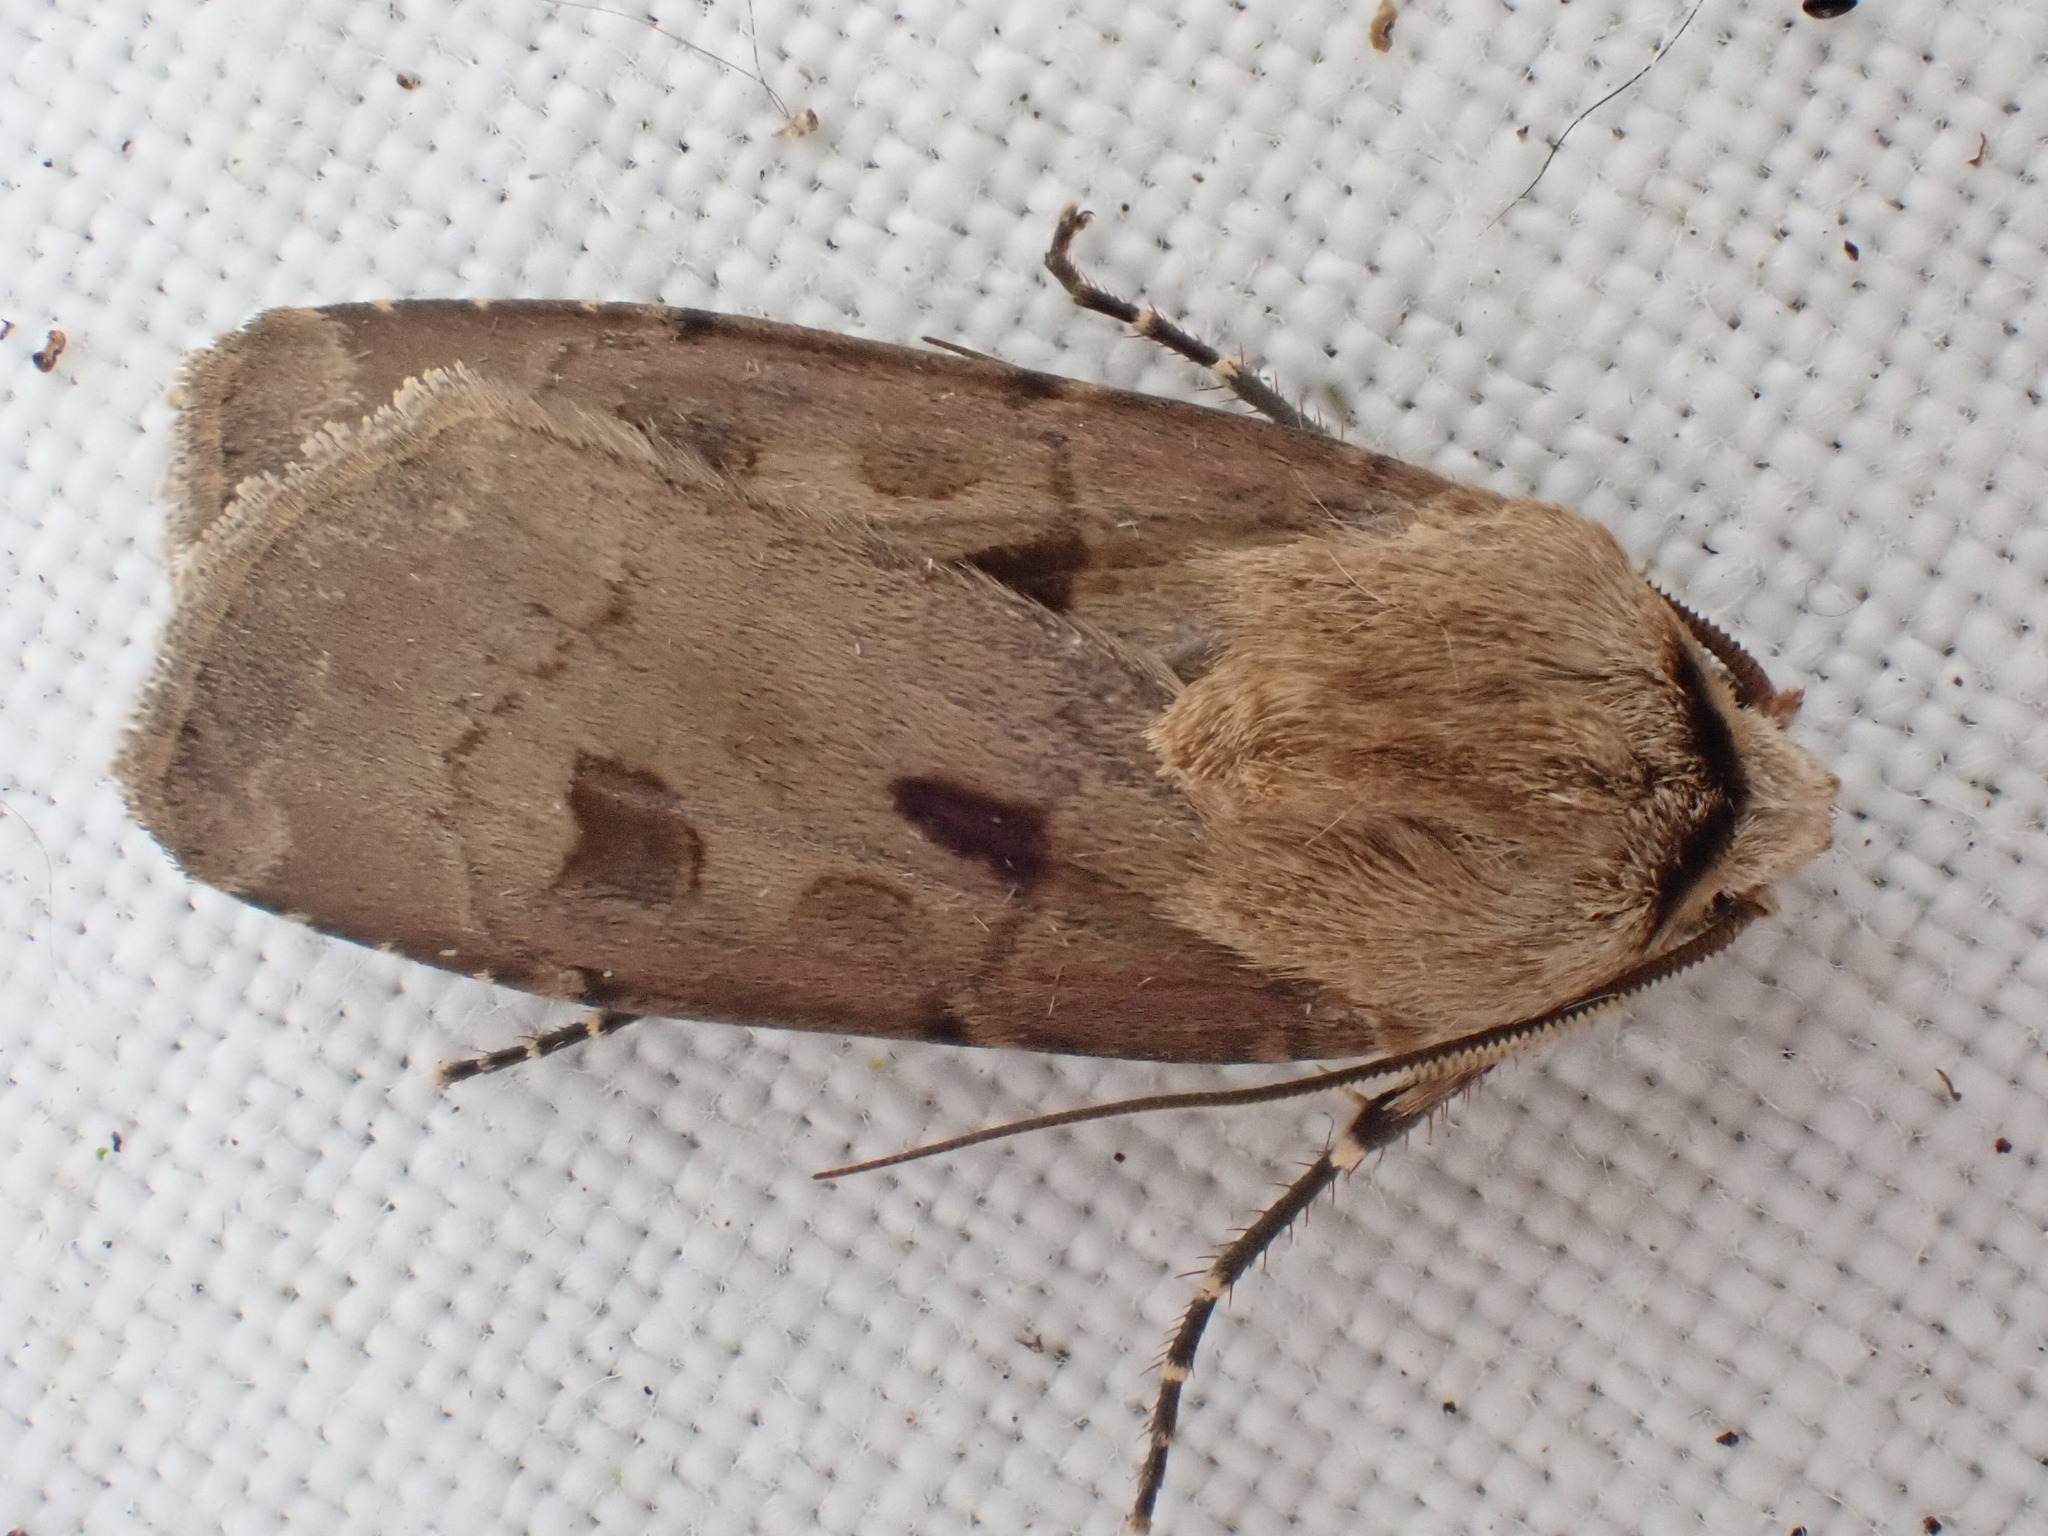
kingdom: Animalia
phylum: Arthropoda
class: Insecta
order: Lepidoptera
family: Noctuidae
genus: Agrotis
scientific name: Agrotis exclamationis
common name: Heart and dart
